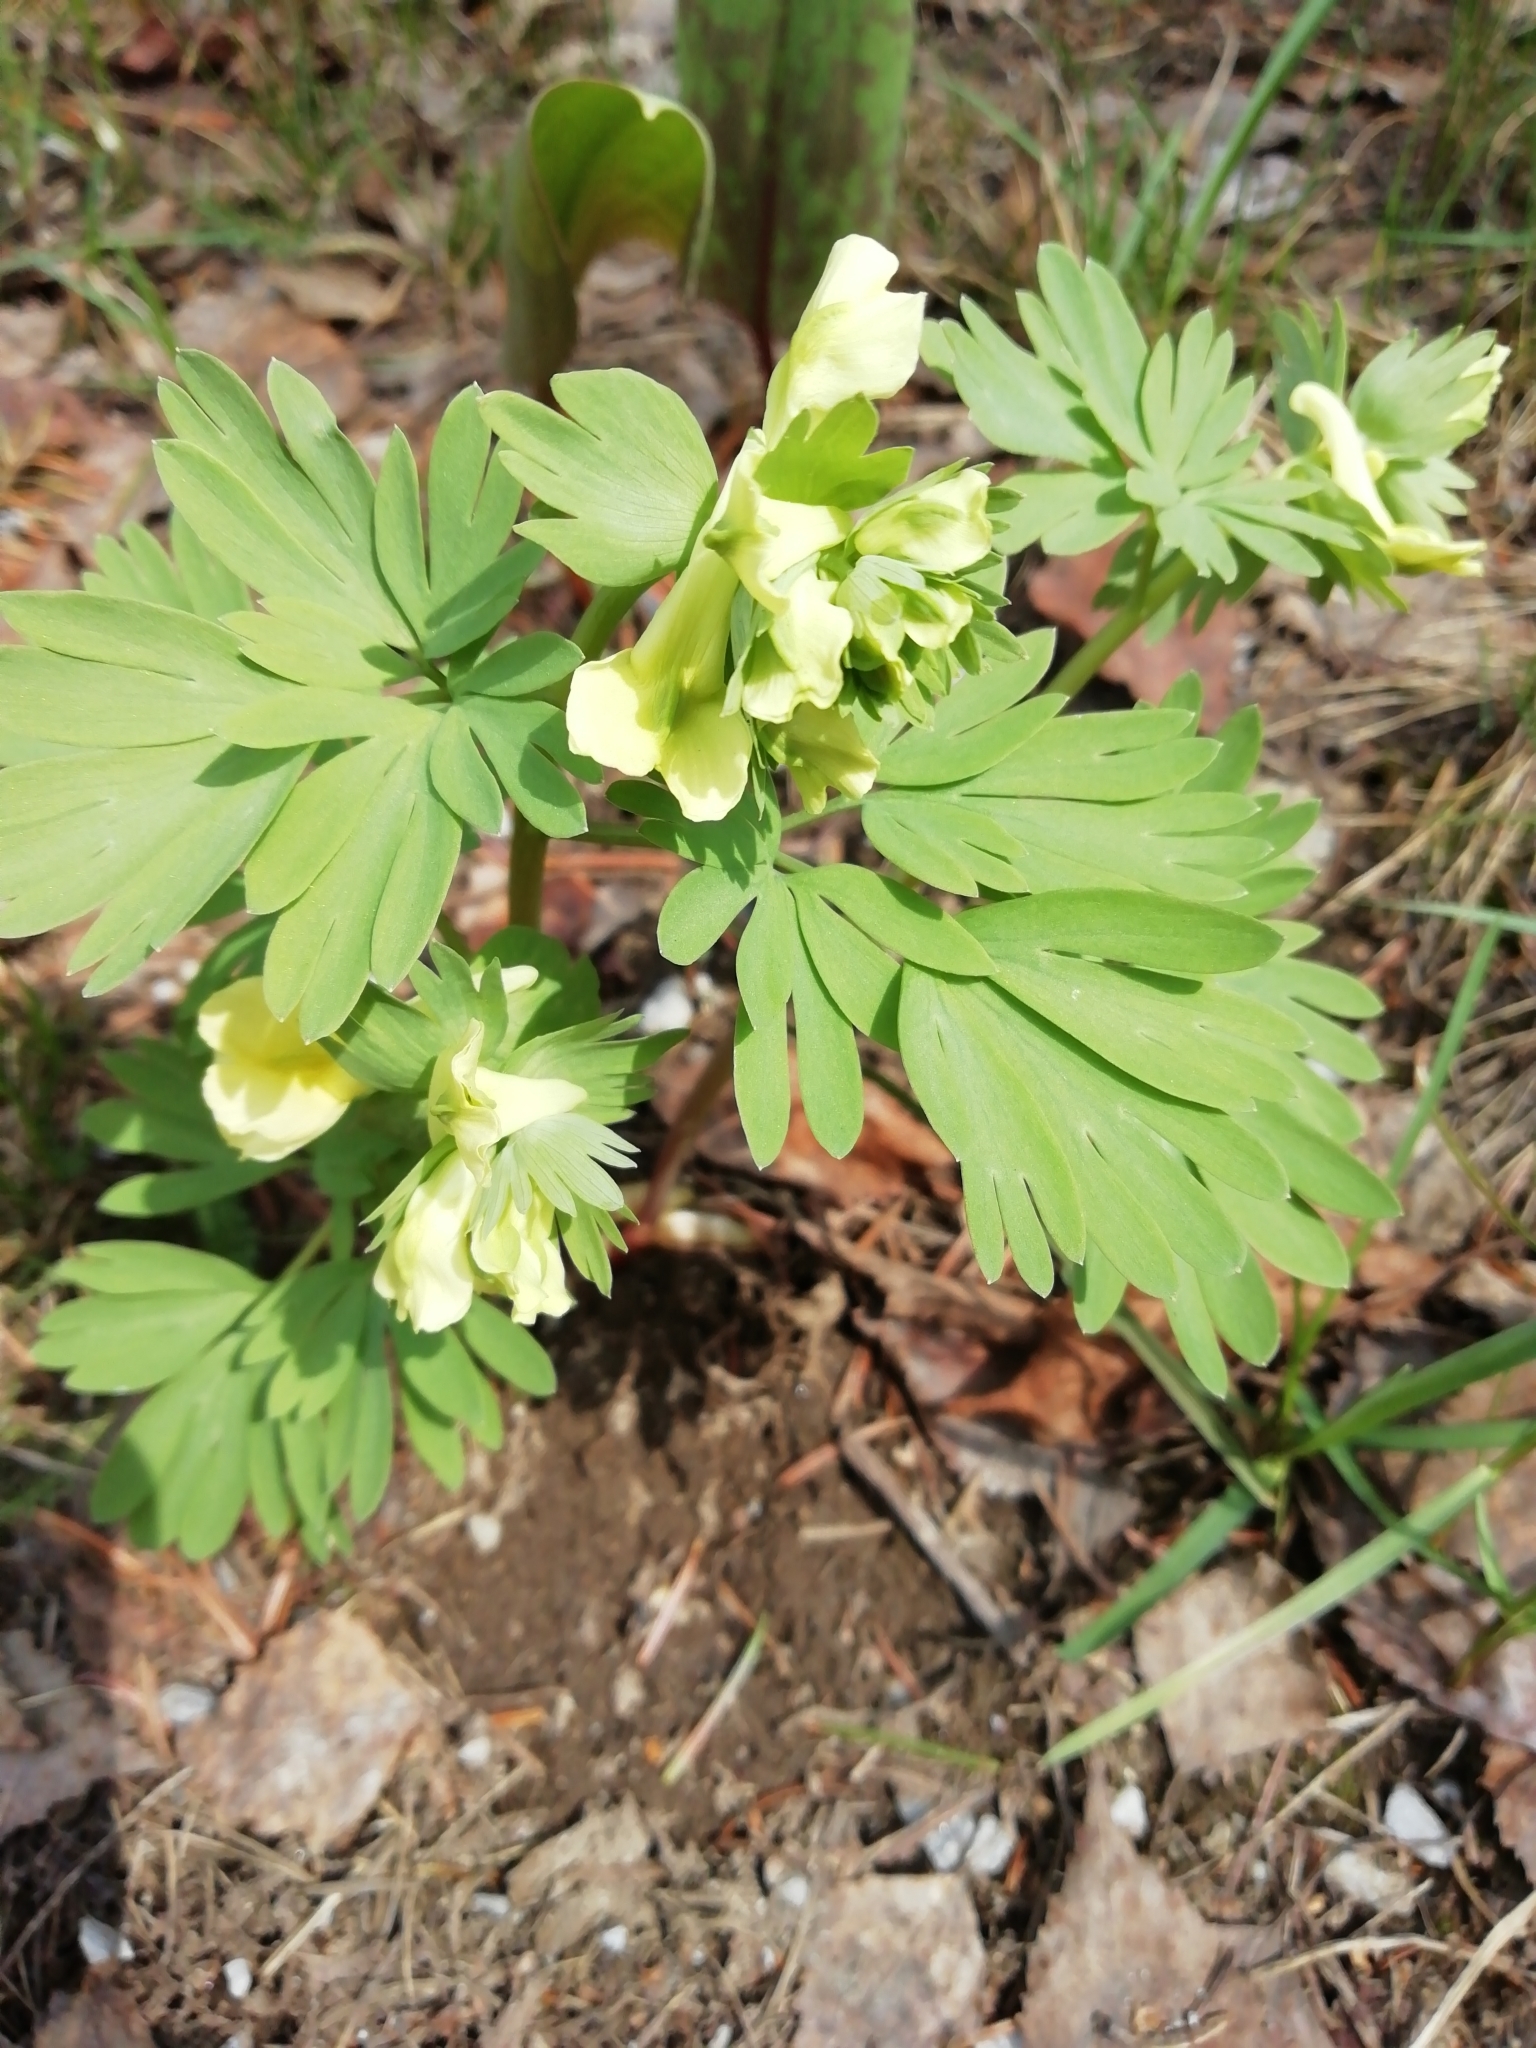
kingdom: Plantae
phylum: Tracheophyta
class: Magnoliopsida
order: Ranunculales
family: Papaveraceae
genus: Corydalis
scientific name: Corydalis bracteata
